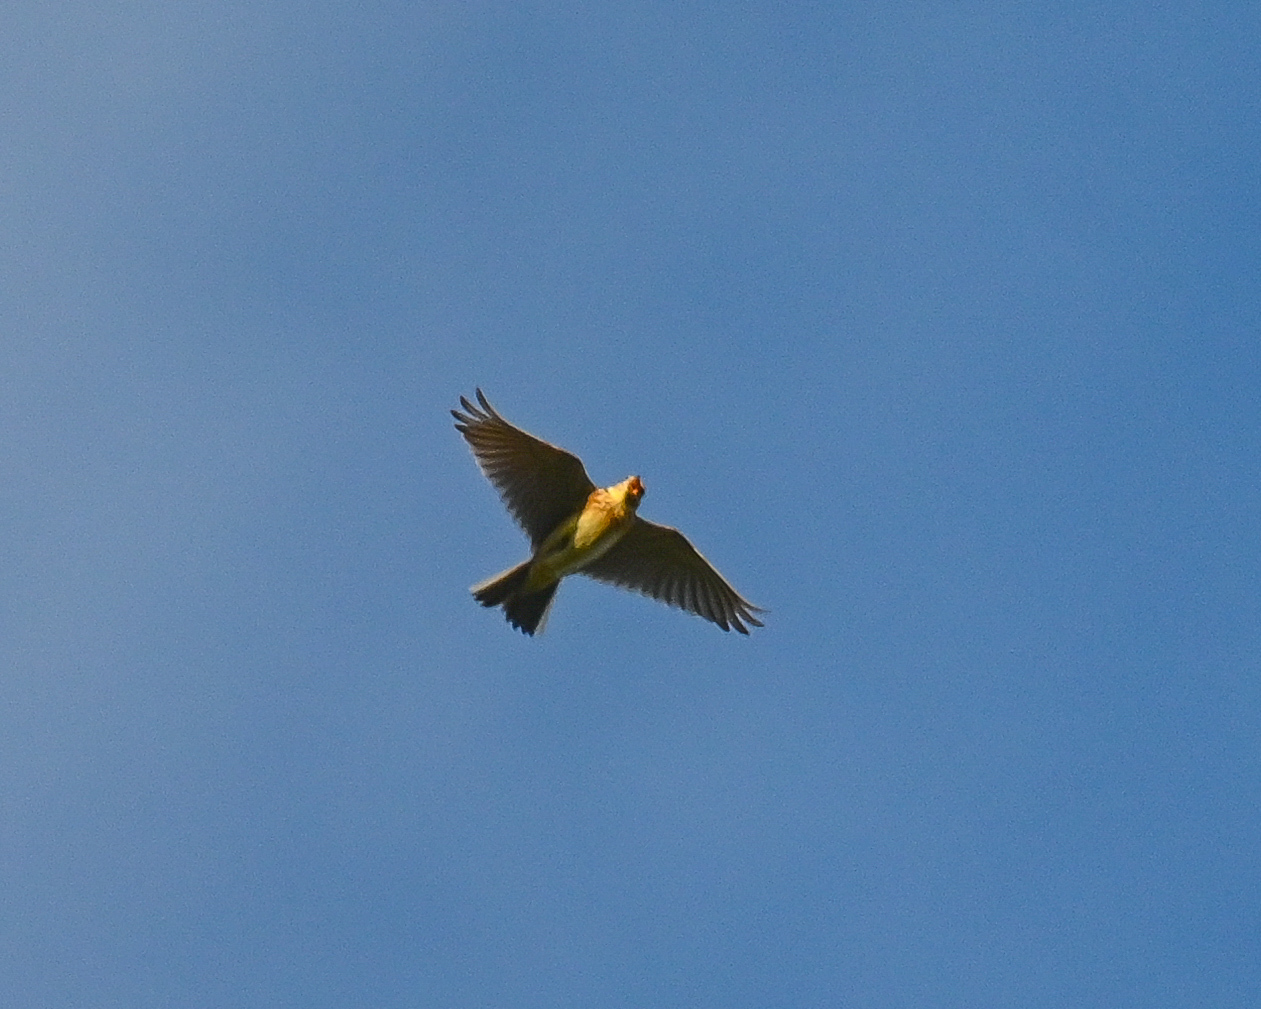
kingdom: Animalia
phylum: Chordata
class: Aves
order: Passeriformes
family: Alaudidae
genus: Alauda
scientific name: Alauda arvensis
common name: Eurasian skylark
